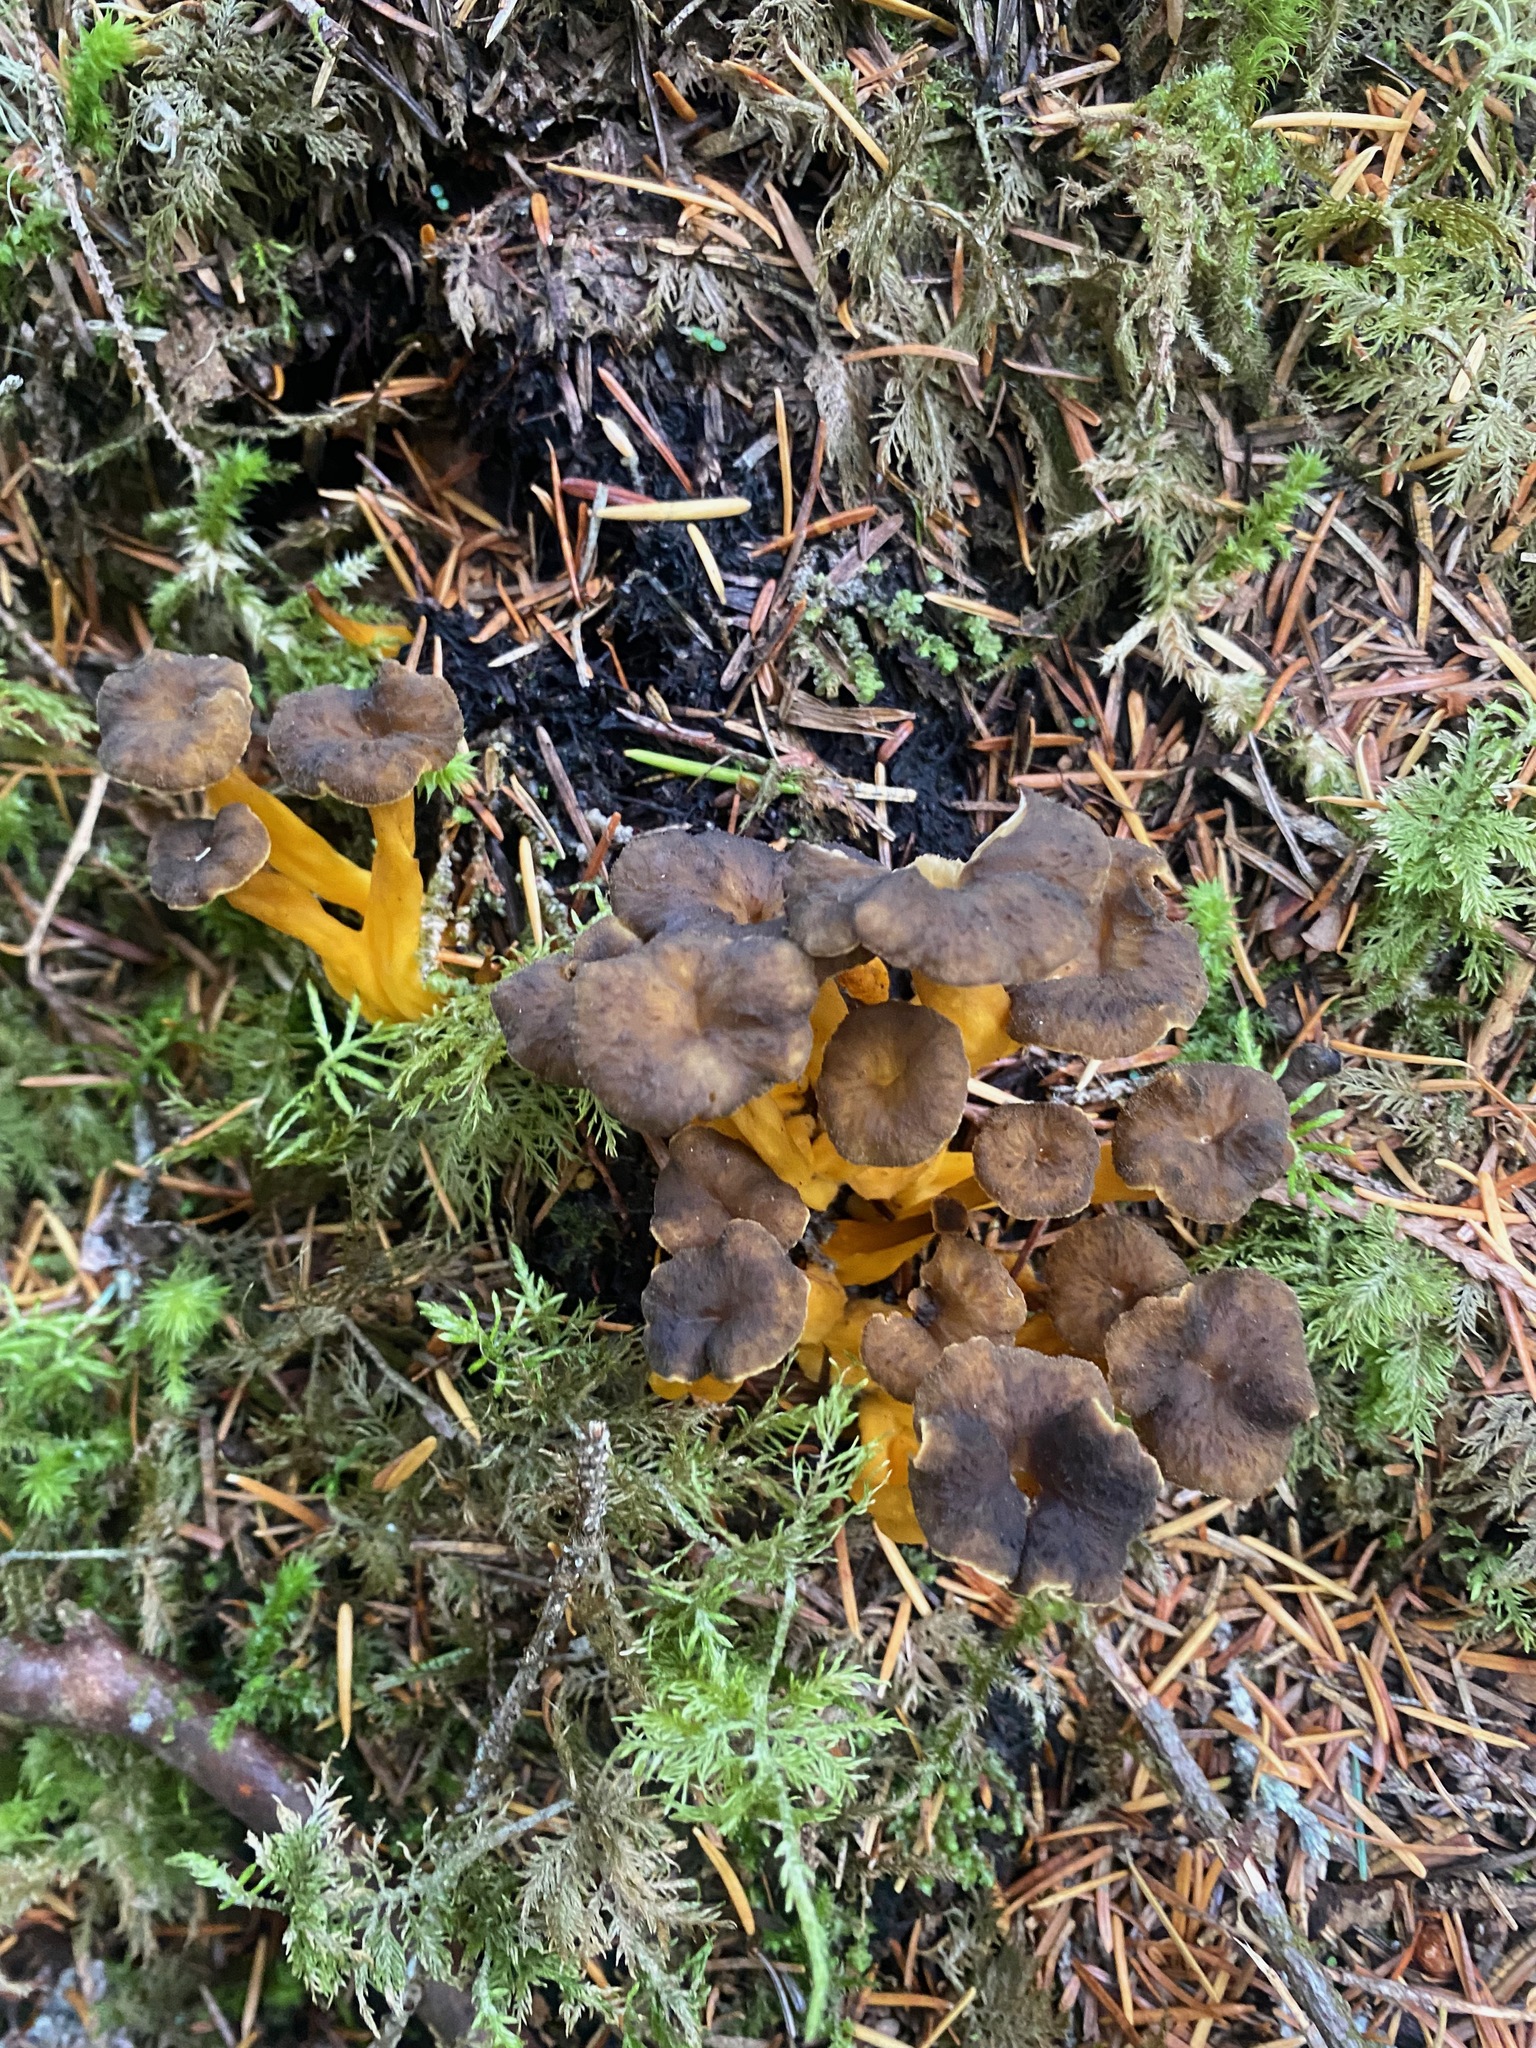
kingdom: Fungi
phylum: Basidiomycota
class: Agaricomycetes
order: Cantharellales
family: Hydnaceae
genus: Craterellus
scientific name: Craterellus tubaeformis
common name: Yellowfoot
